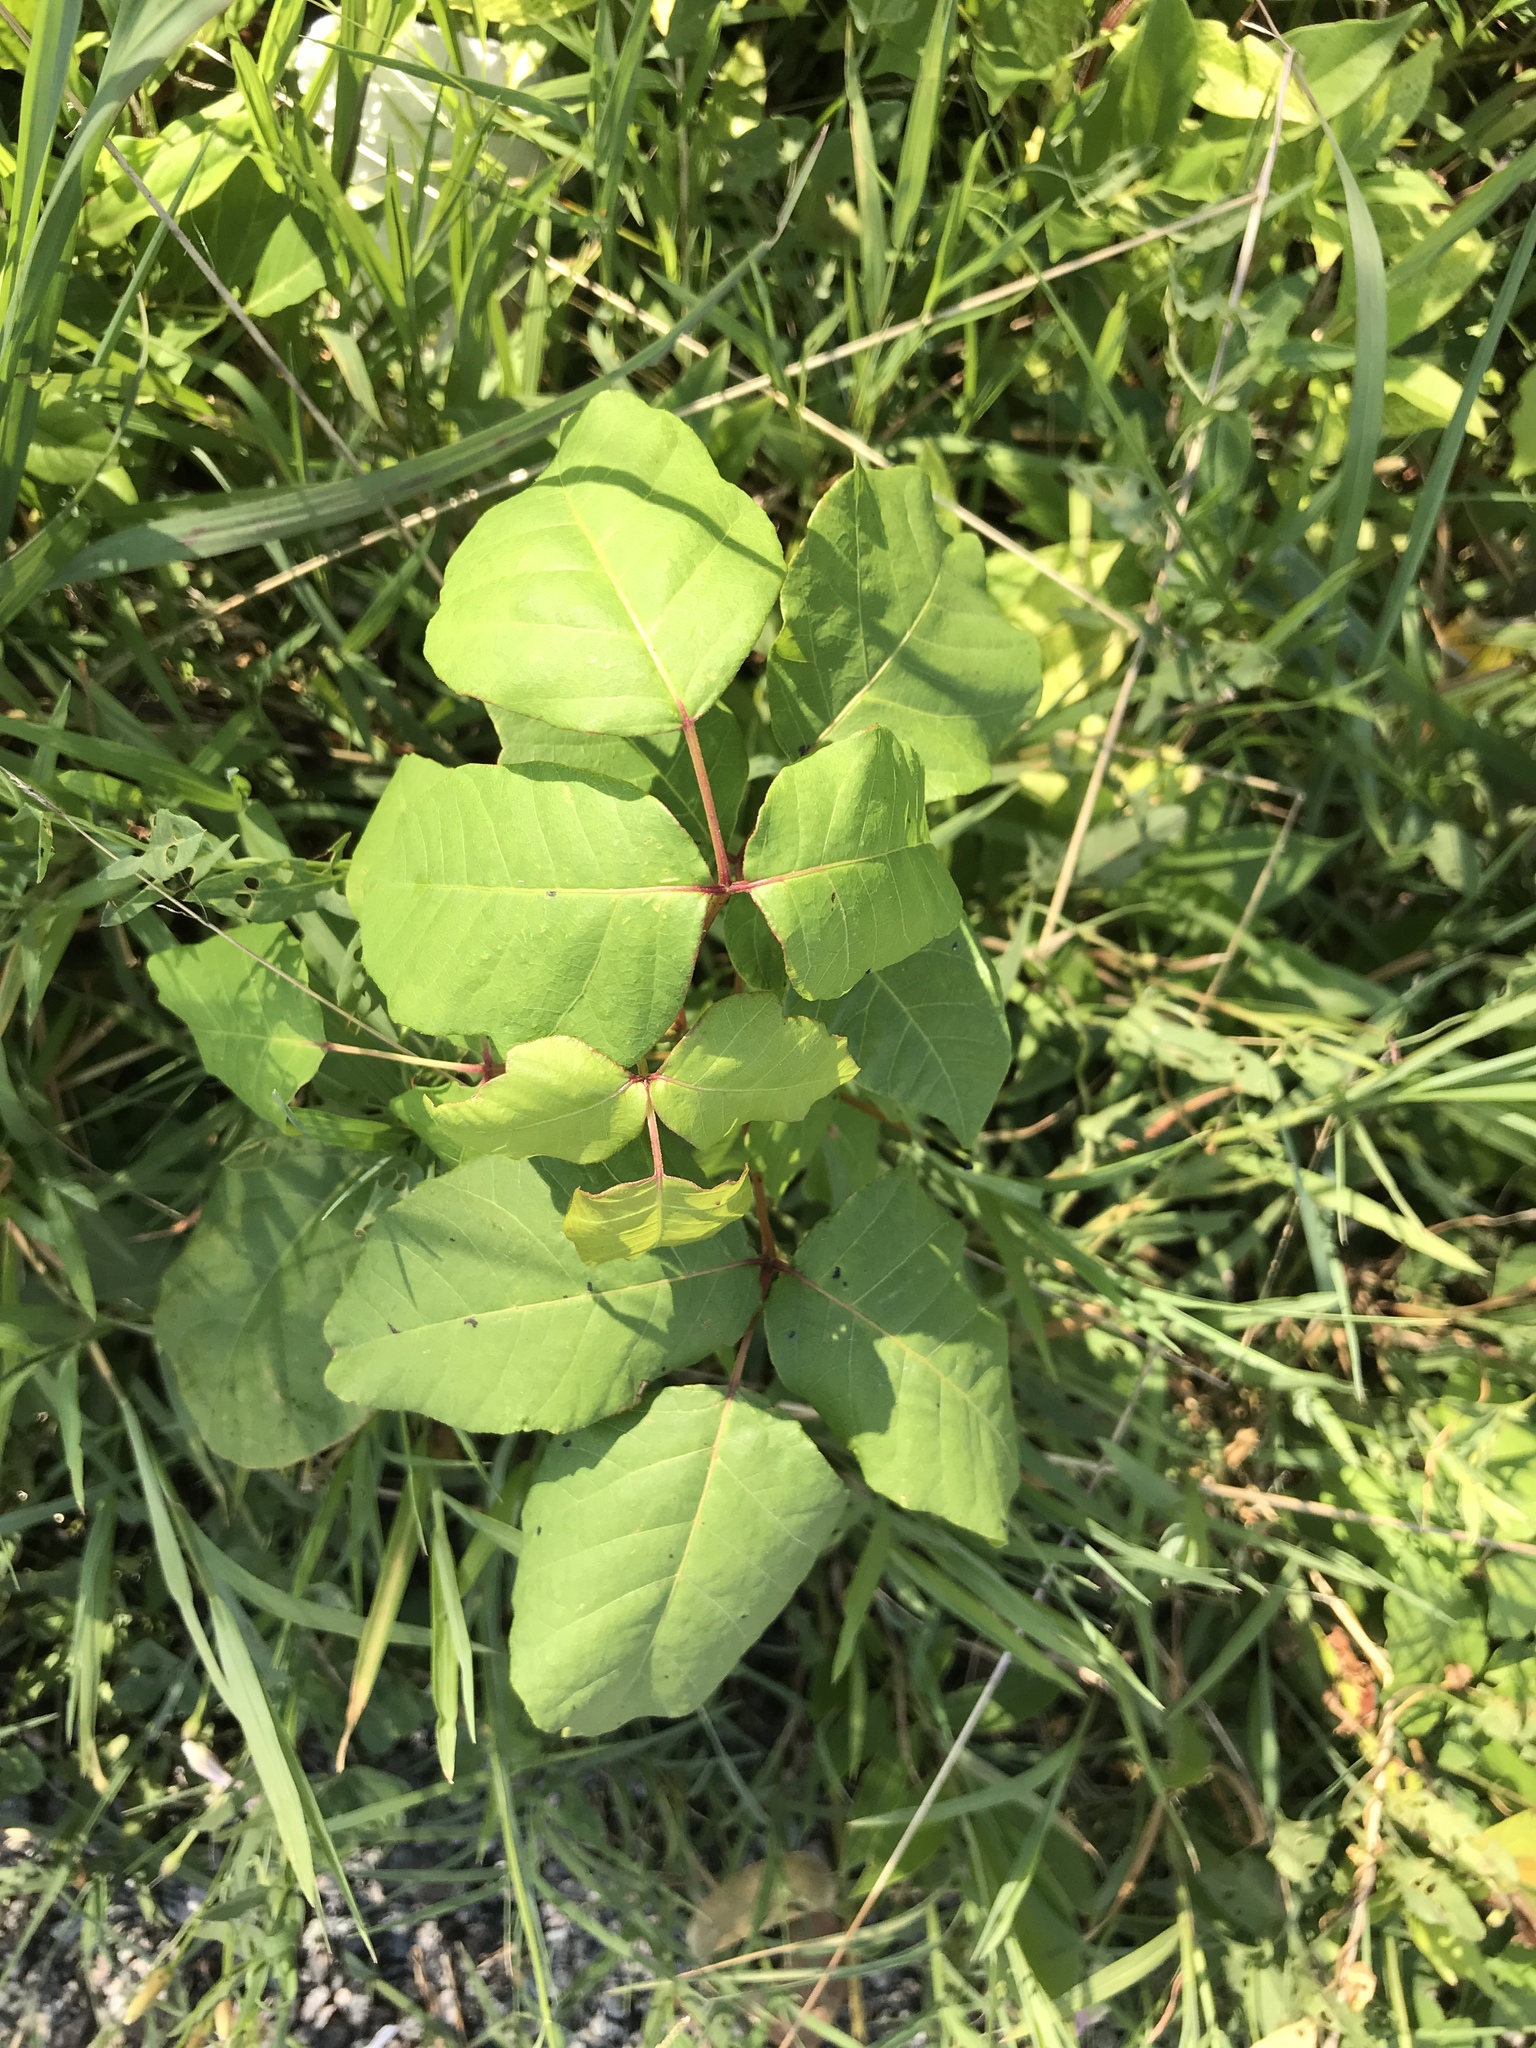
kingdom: Plantae
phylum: Tracheophyta
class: Magnoliopsida
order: Sapindales
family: Anacardiaceae
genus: Toxicodendron
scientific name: Toxicodendron radicans
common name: Poison ivy
